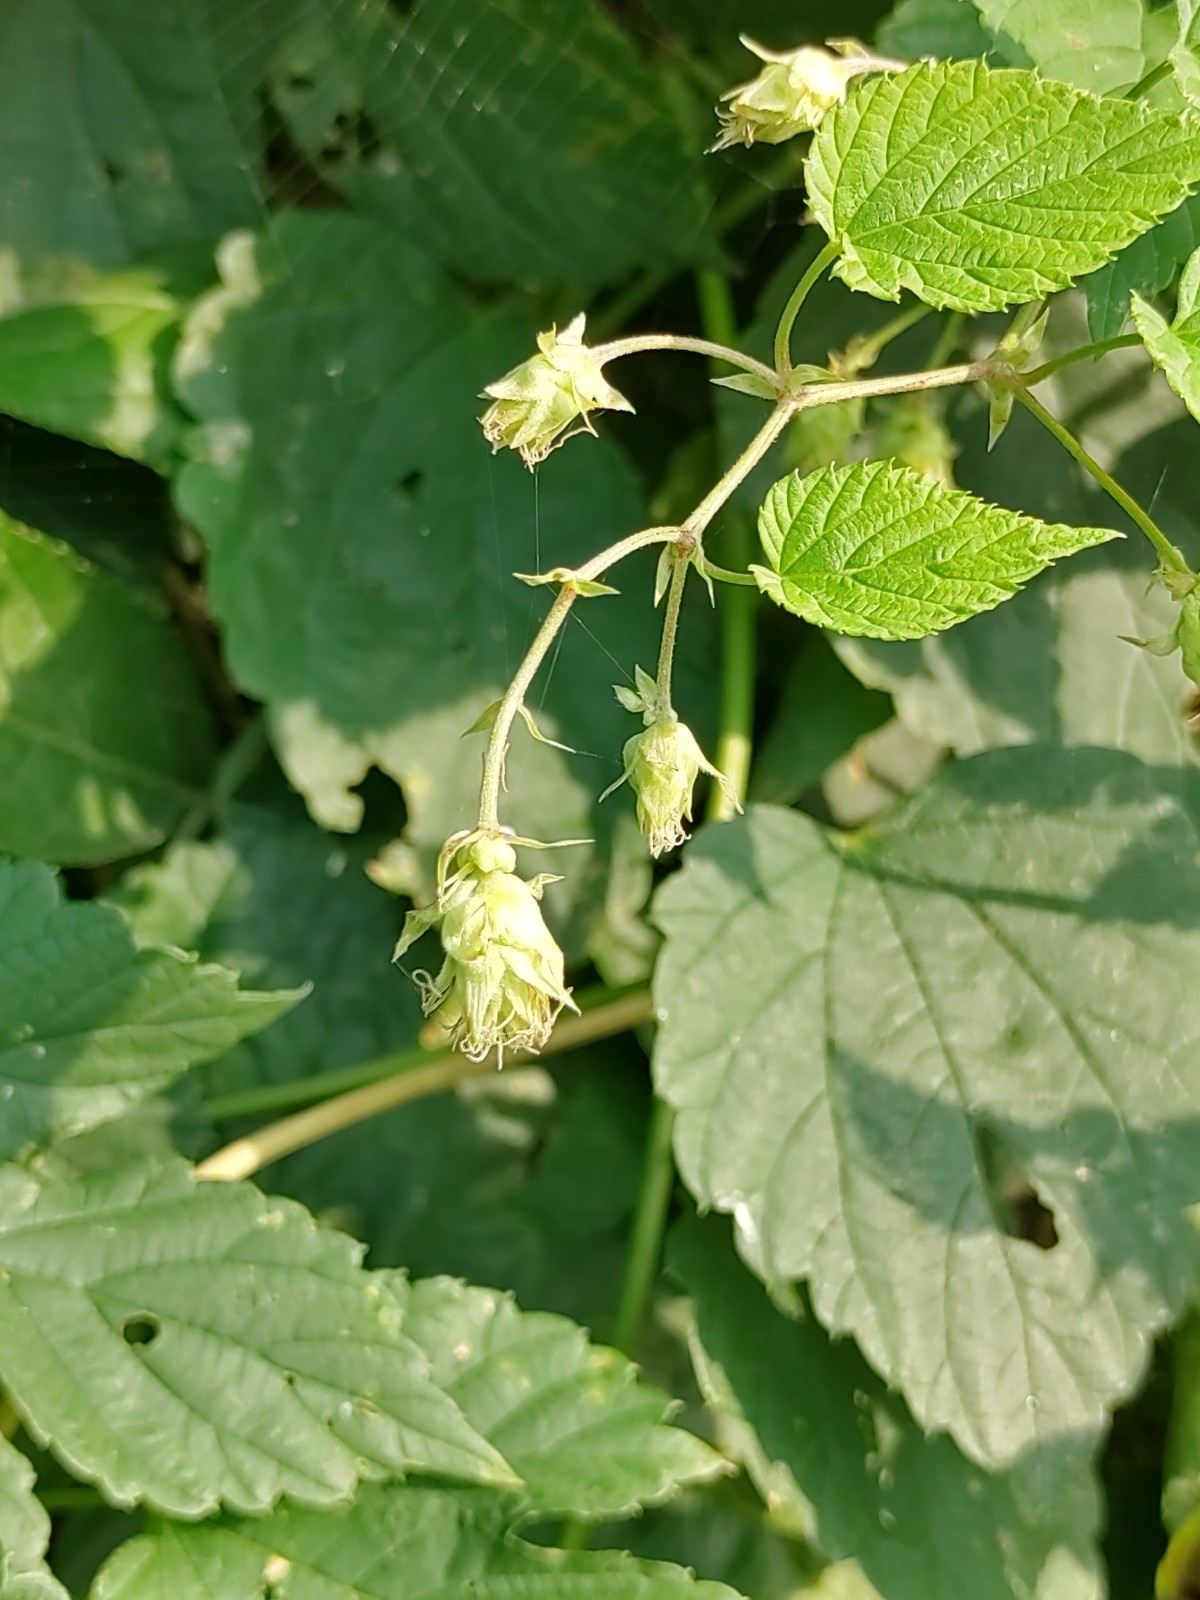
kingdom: Plantae
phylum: Tracheophyta
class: Magnoliopsida
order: Rosales
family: Cannabaceae
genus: Humulus
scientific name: Humulus lupulus
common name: Hop
